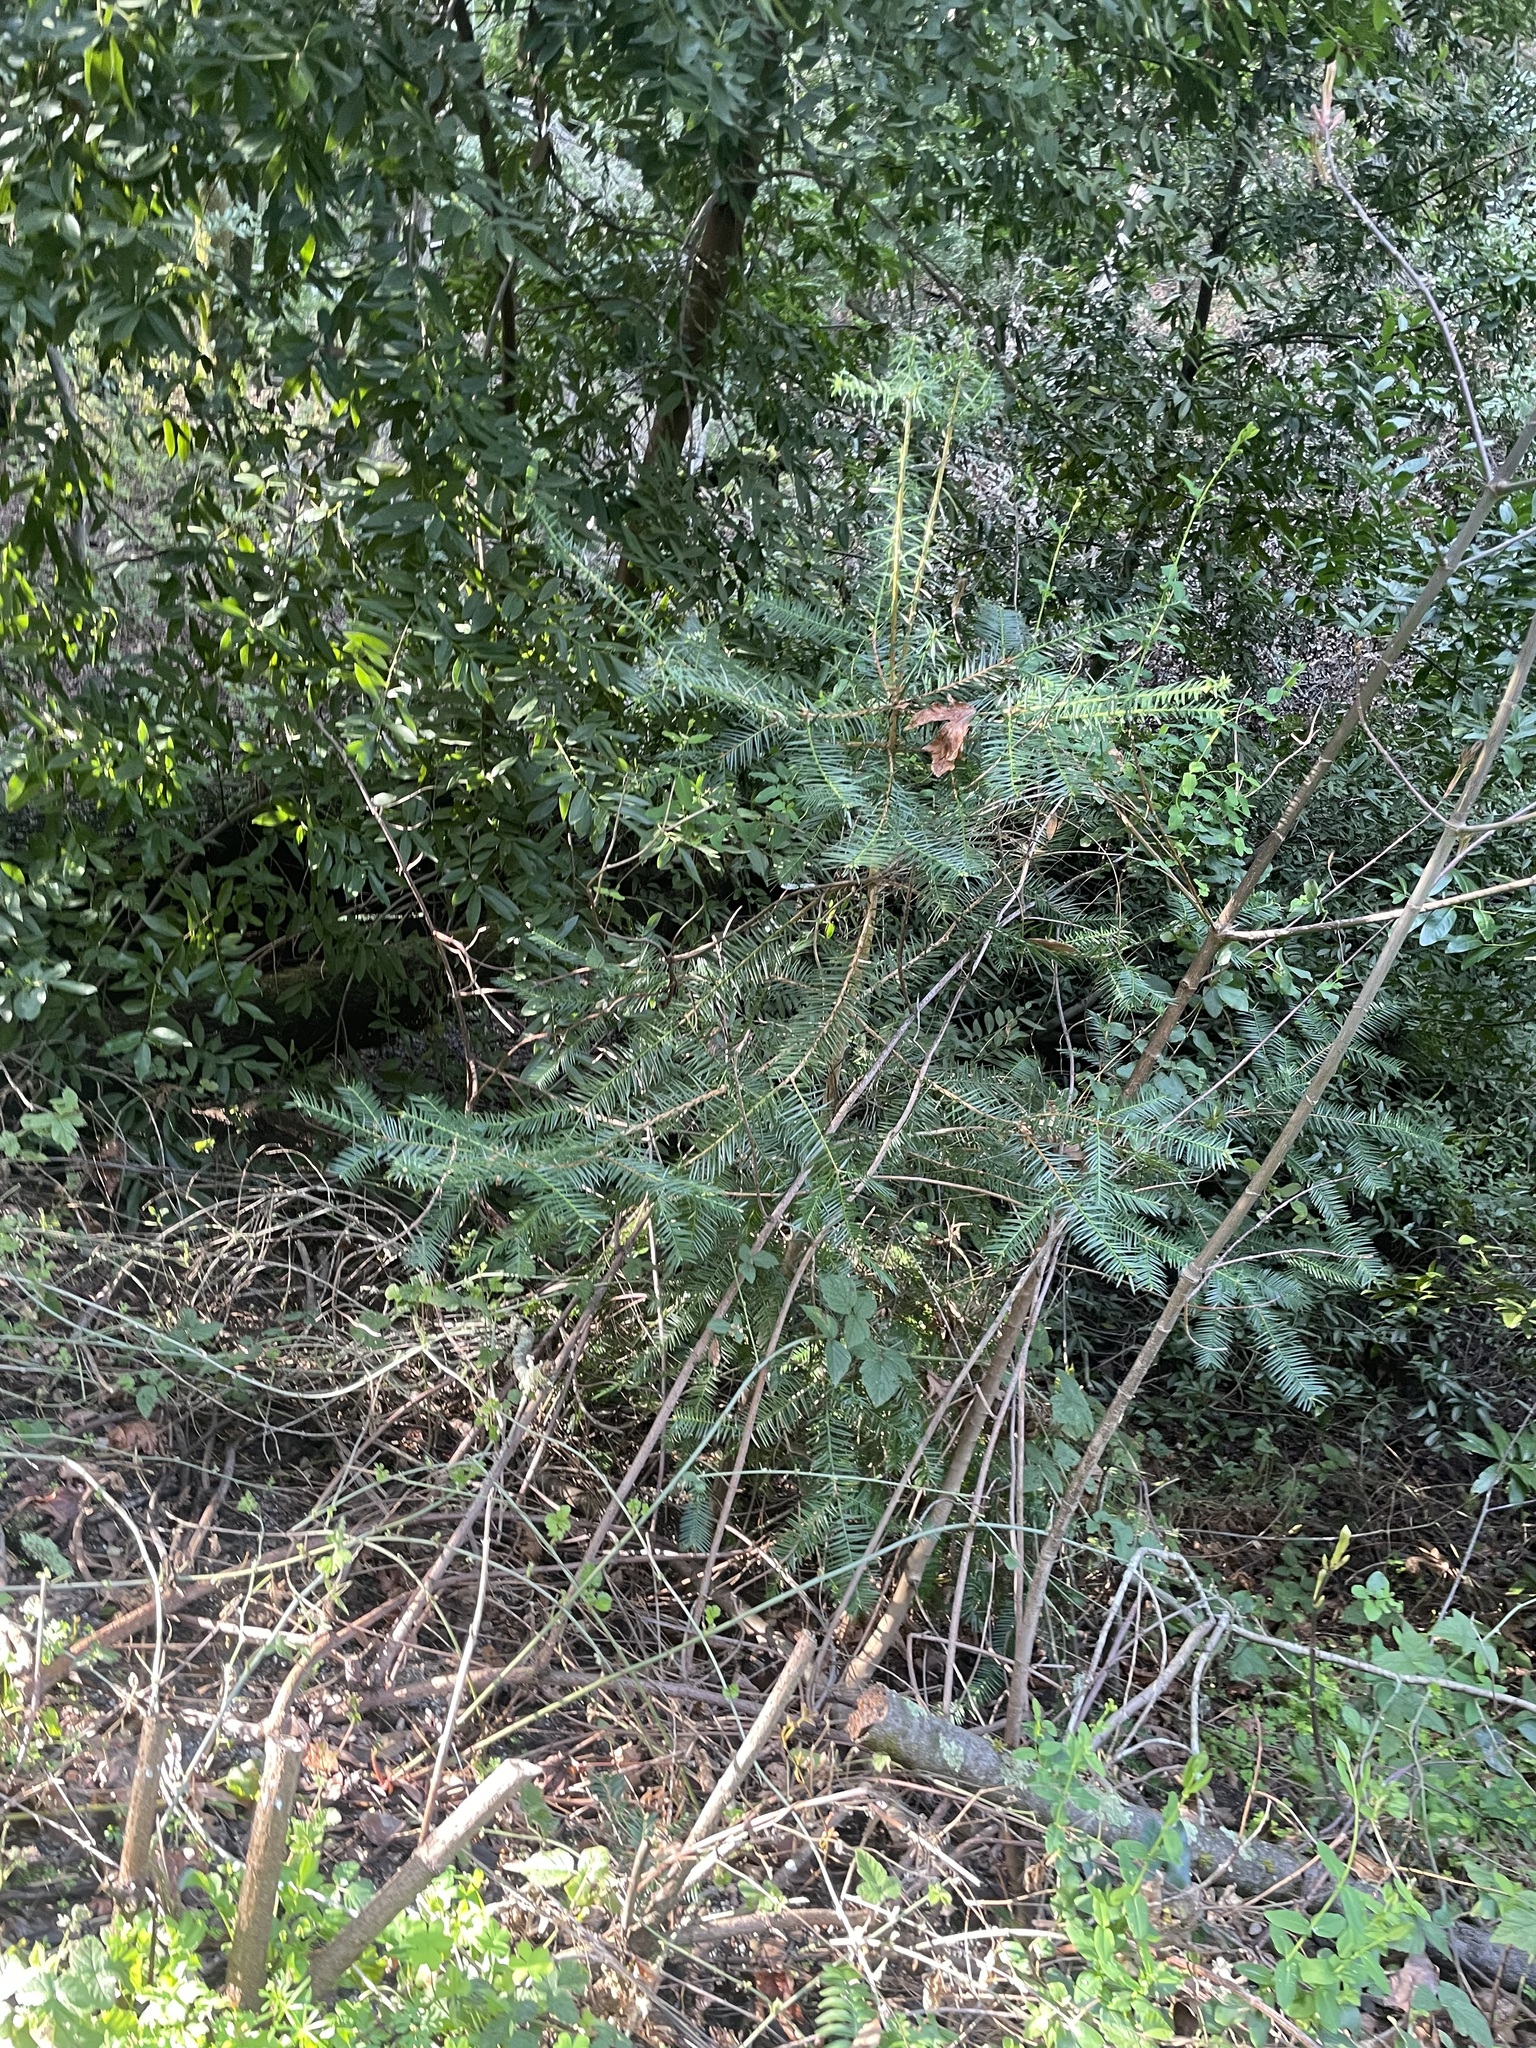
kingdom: Plantae
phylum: Tracheophyta
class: Pinopsida
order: Pinales
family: Taxaceae
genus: Torreya
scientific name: Torreya californica
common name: California torreya
